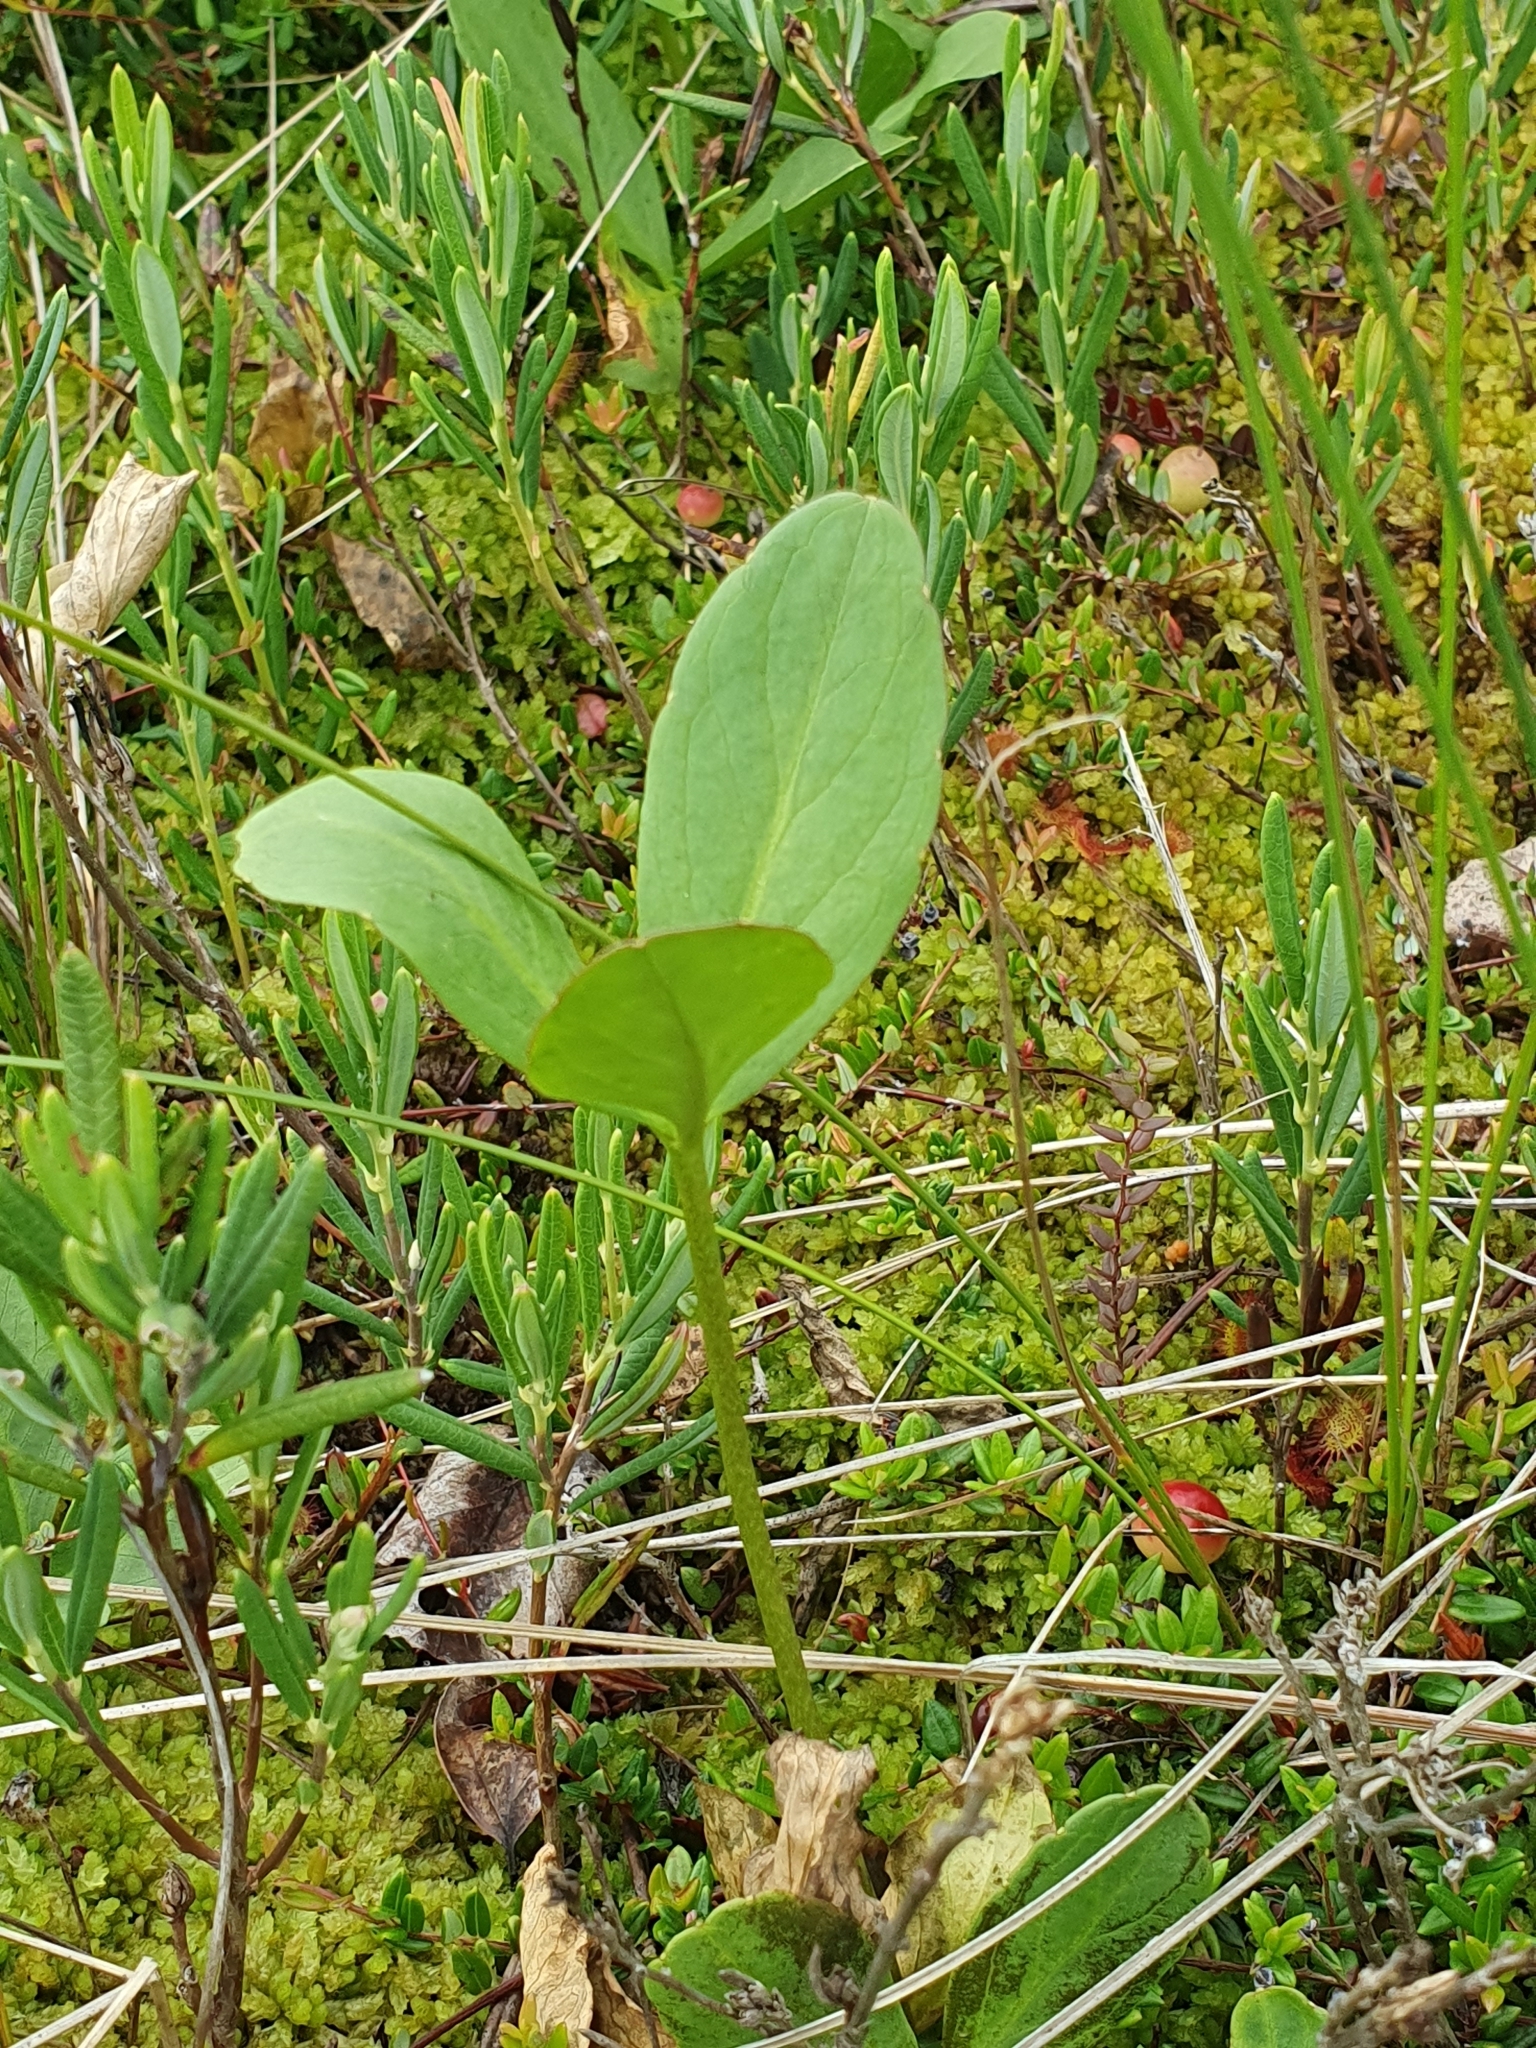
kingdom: Plantae
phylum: Tracheophyta
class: Magnoliopsida
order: Asterales
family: Menyanthaceae
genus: Menyanthes
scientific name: Menyanthes trifoliata
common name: Bogbean
